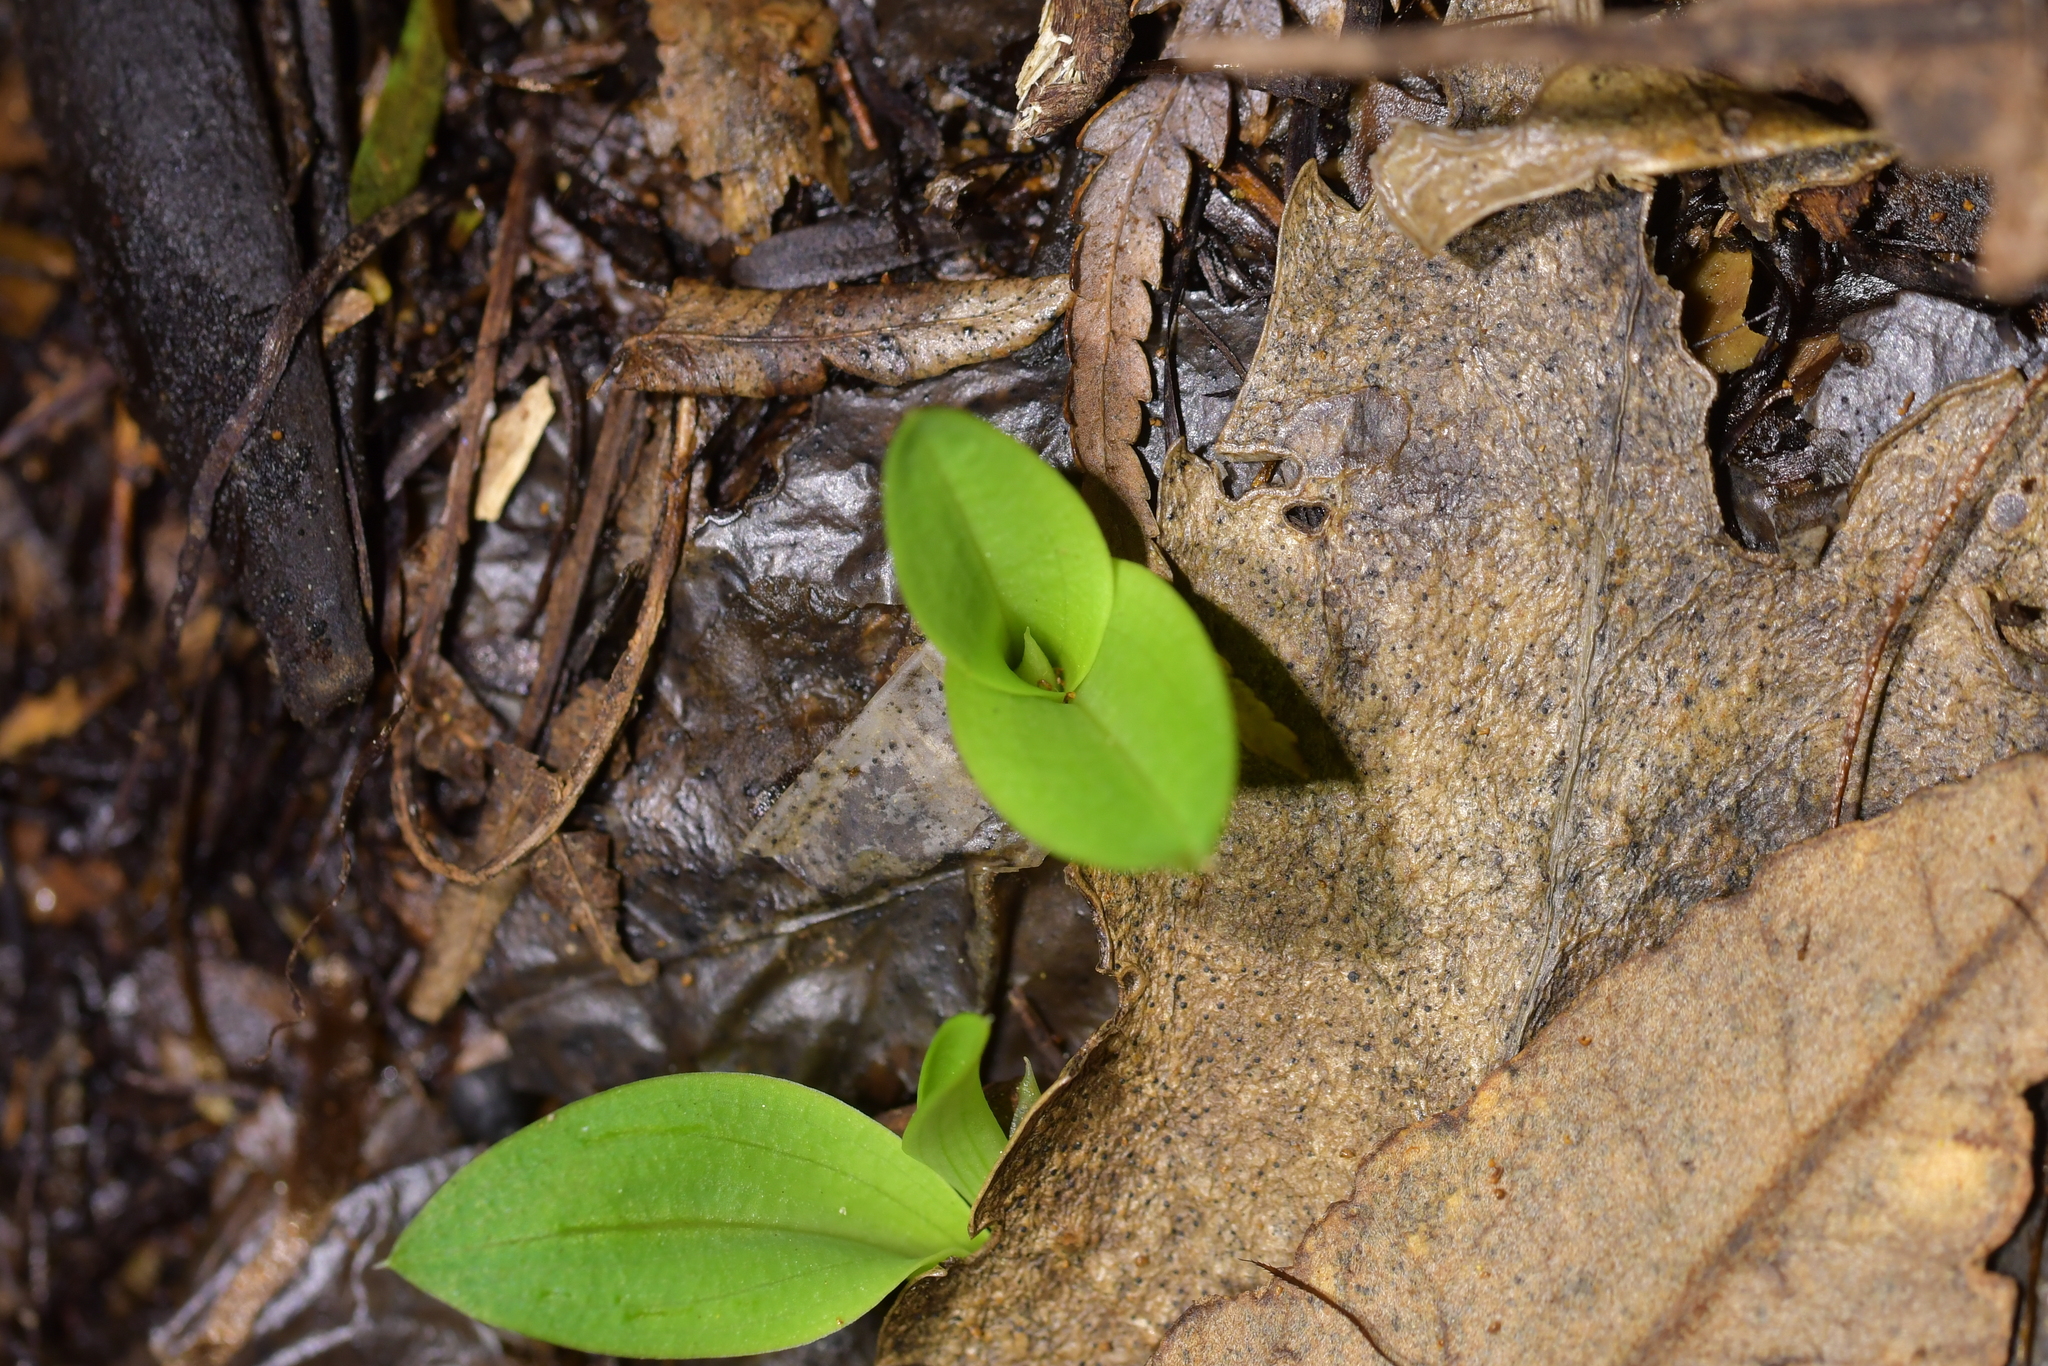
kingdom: Plantae
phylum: Tracheophyta
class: Liliopsida
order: Asparagales
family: Orchidaceae
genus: Chiloglottis
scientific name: Chiloglottis cornuta
